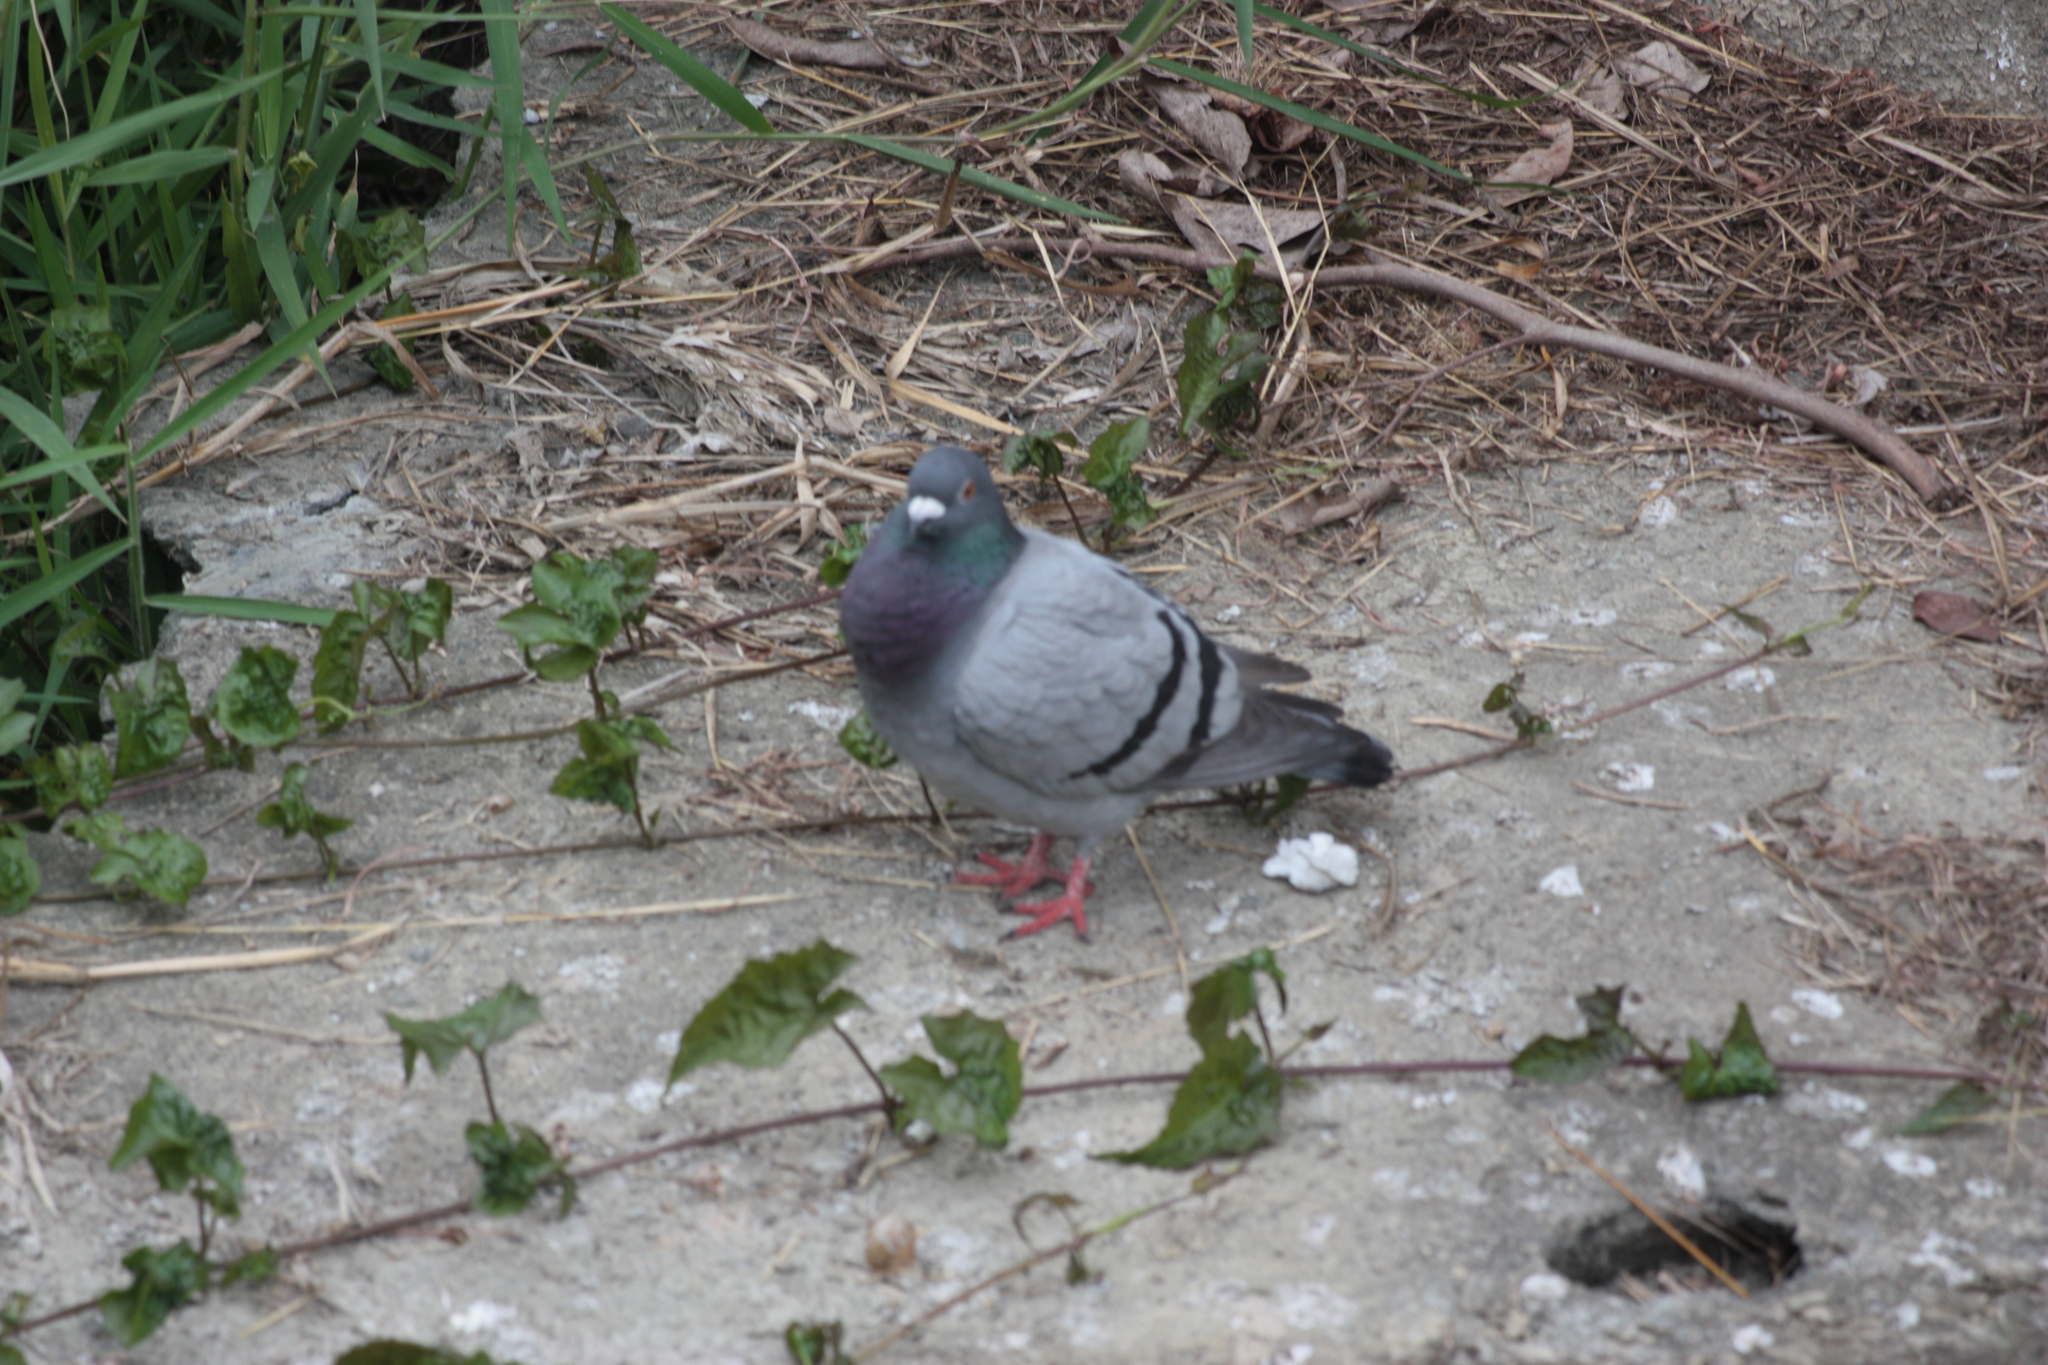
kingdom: Animalia
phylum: Chordata
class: Aves
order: Columbiformes
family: Columbidae
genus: Columba
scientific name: Columba livia
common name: Rock pigeon
